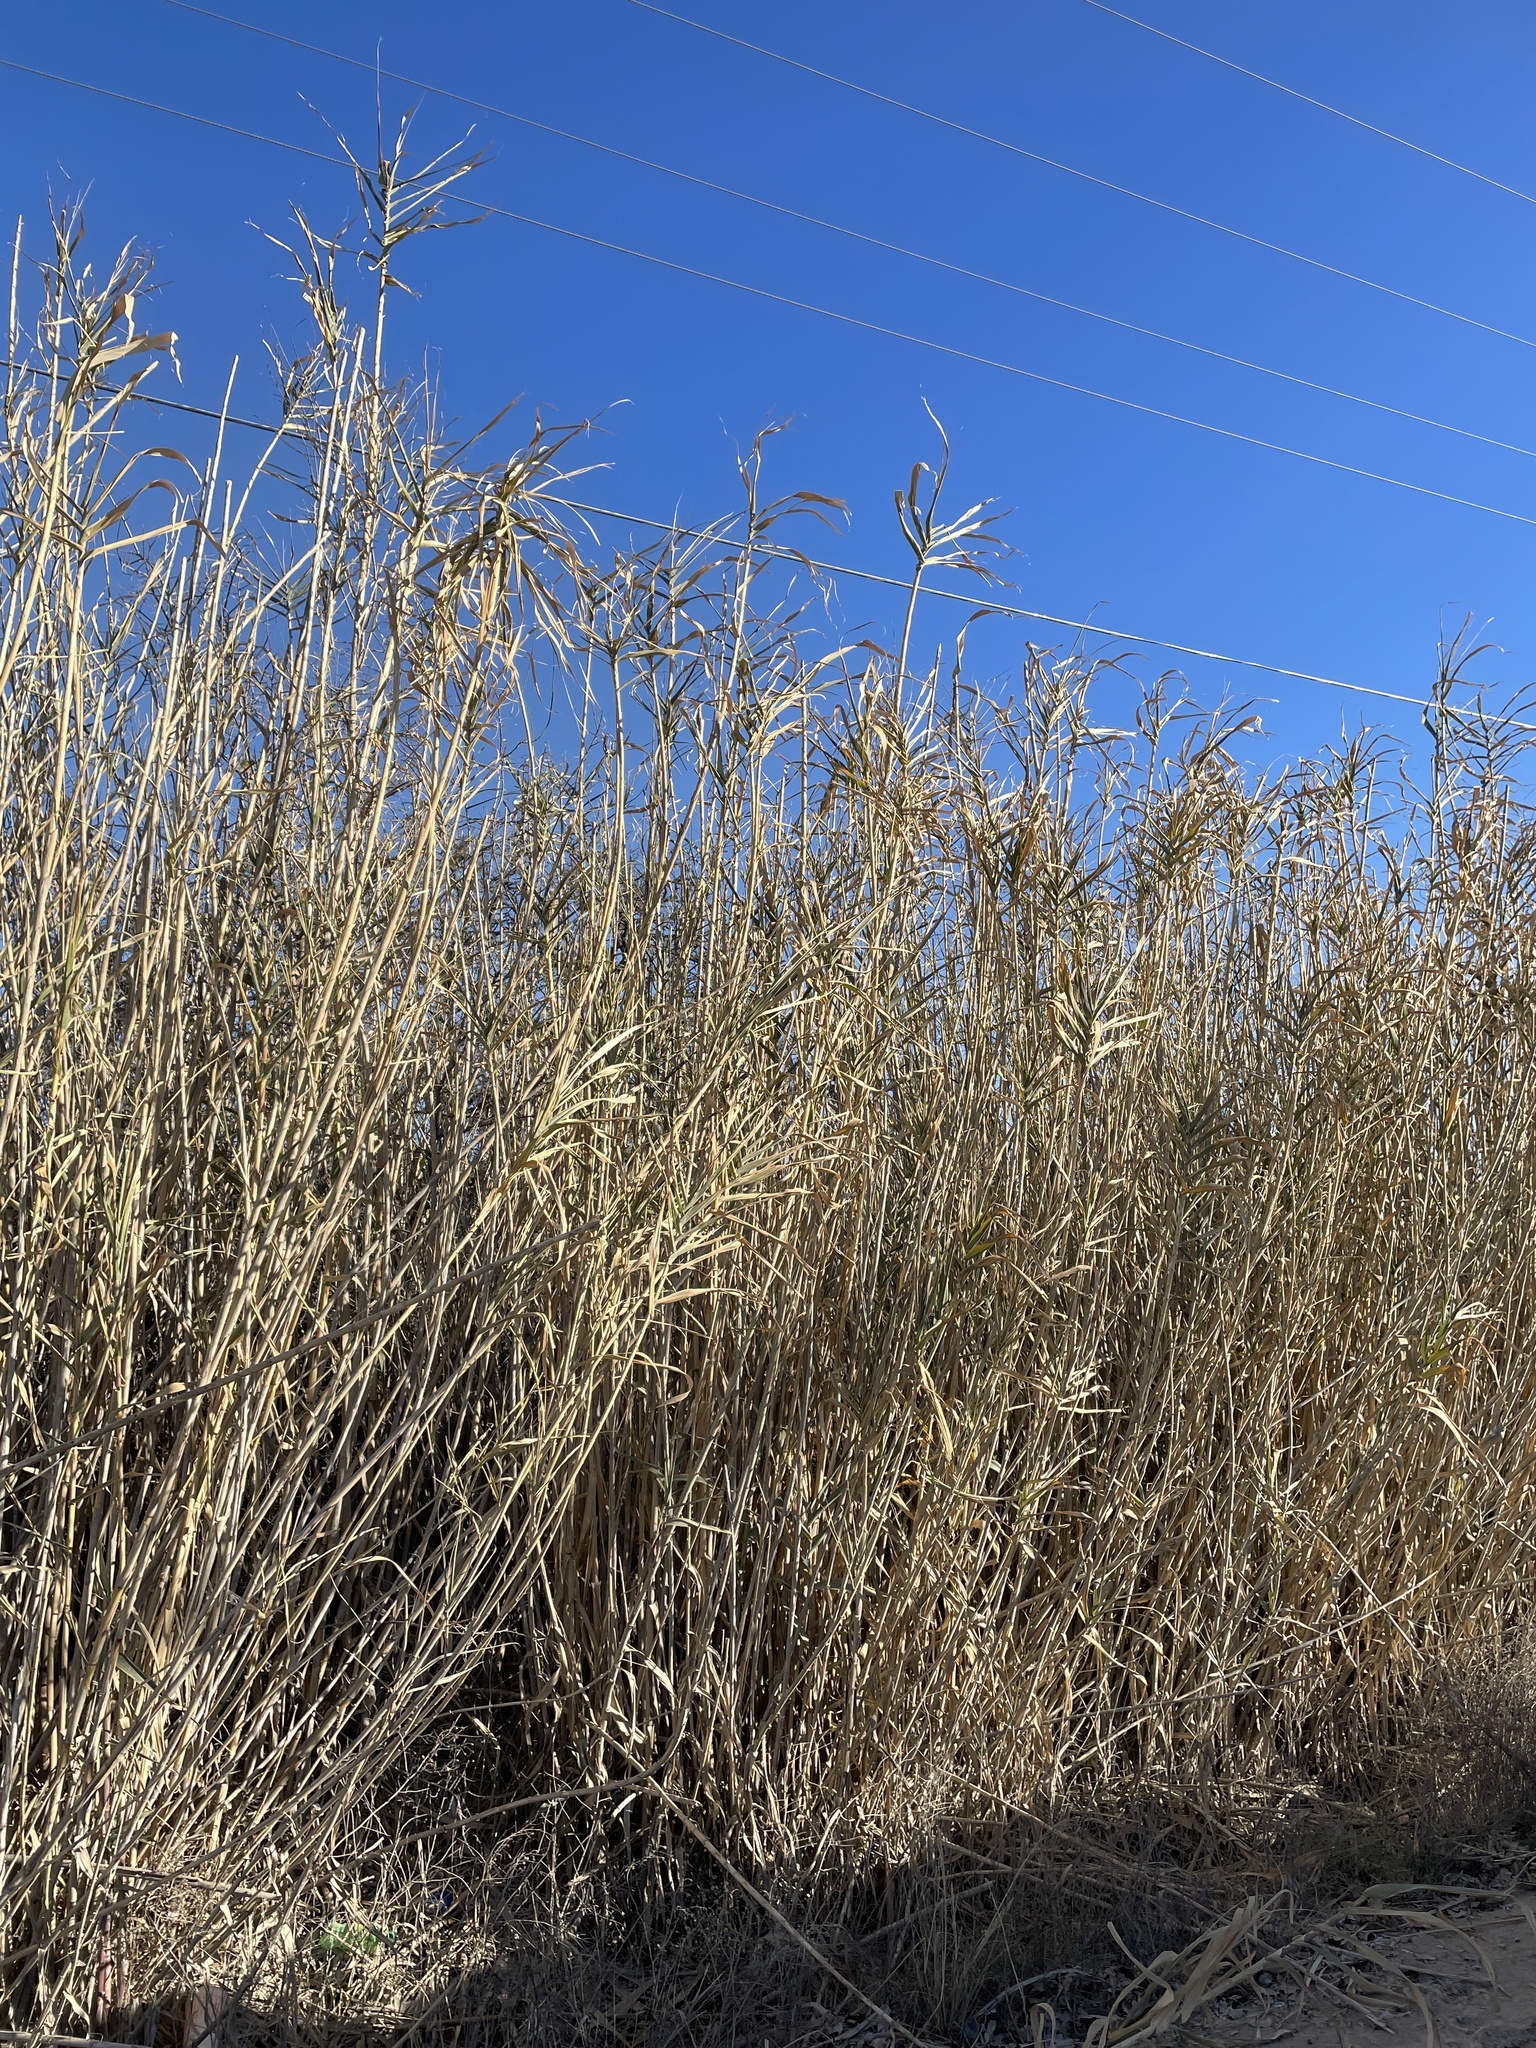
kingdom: Plantae
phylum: Tracheophyta
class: Liliopsida
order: Poales
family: Poaceae
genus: Arundo
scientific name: Arundo donax
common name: Giant reed
